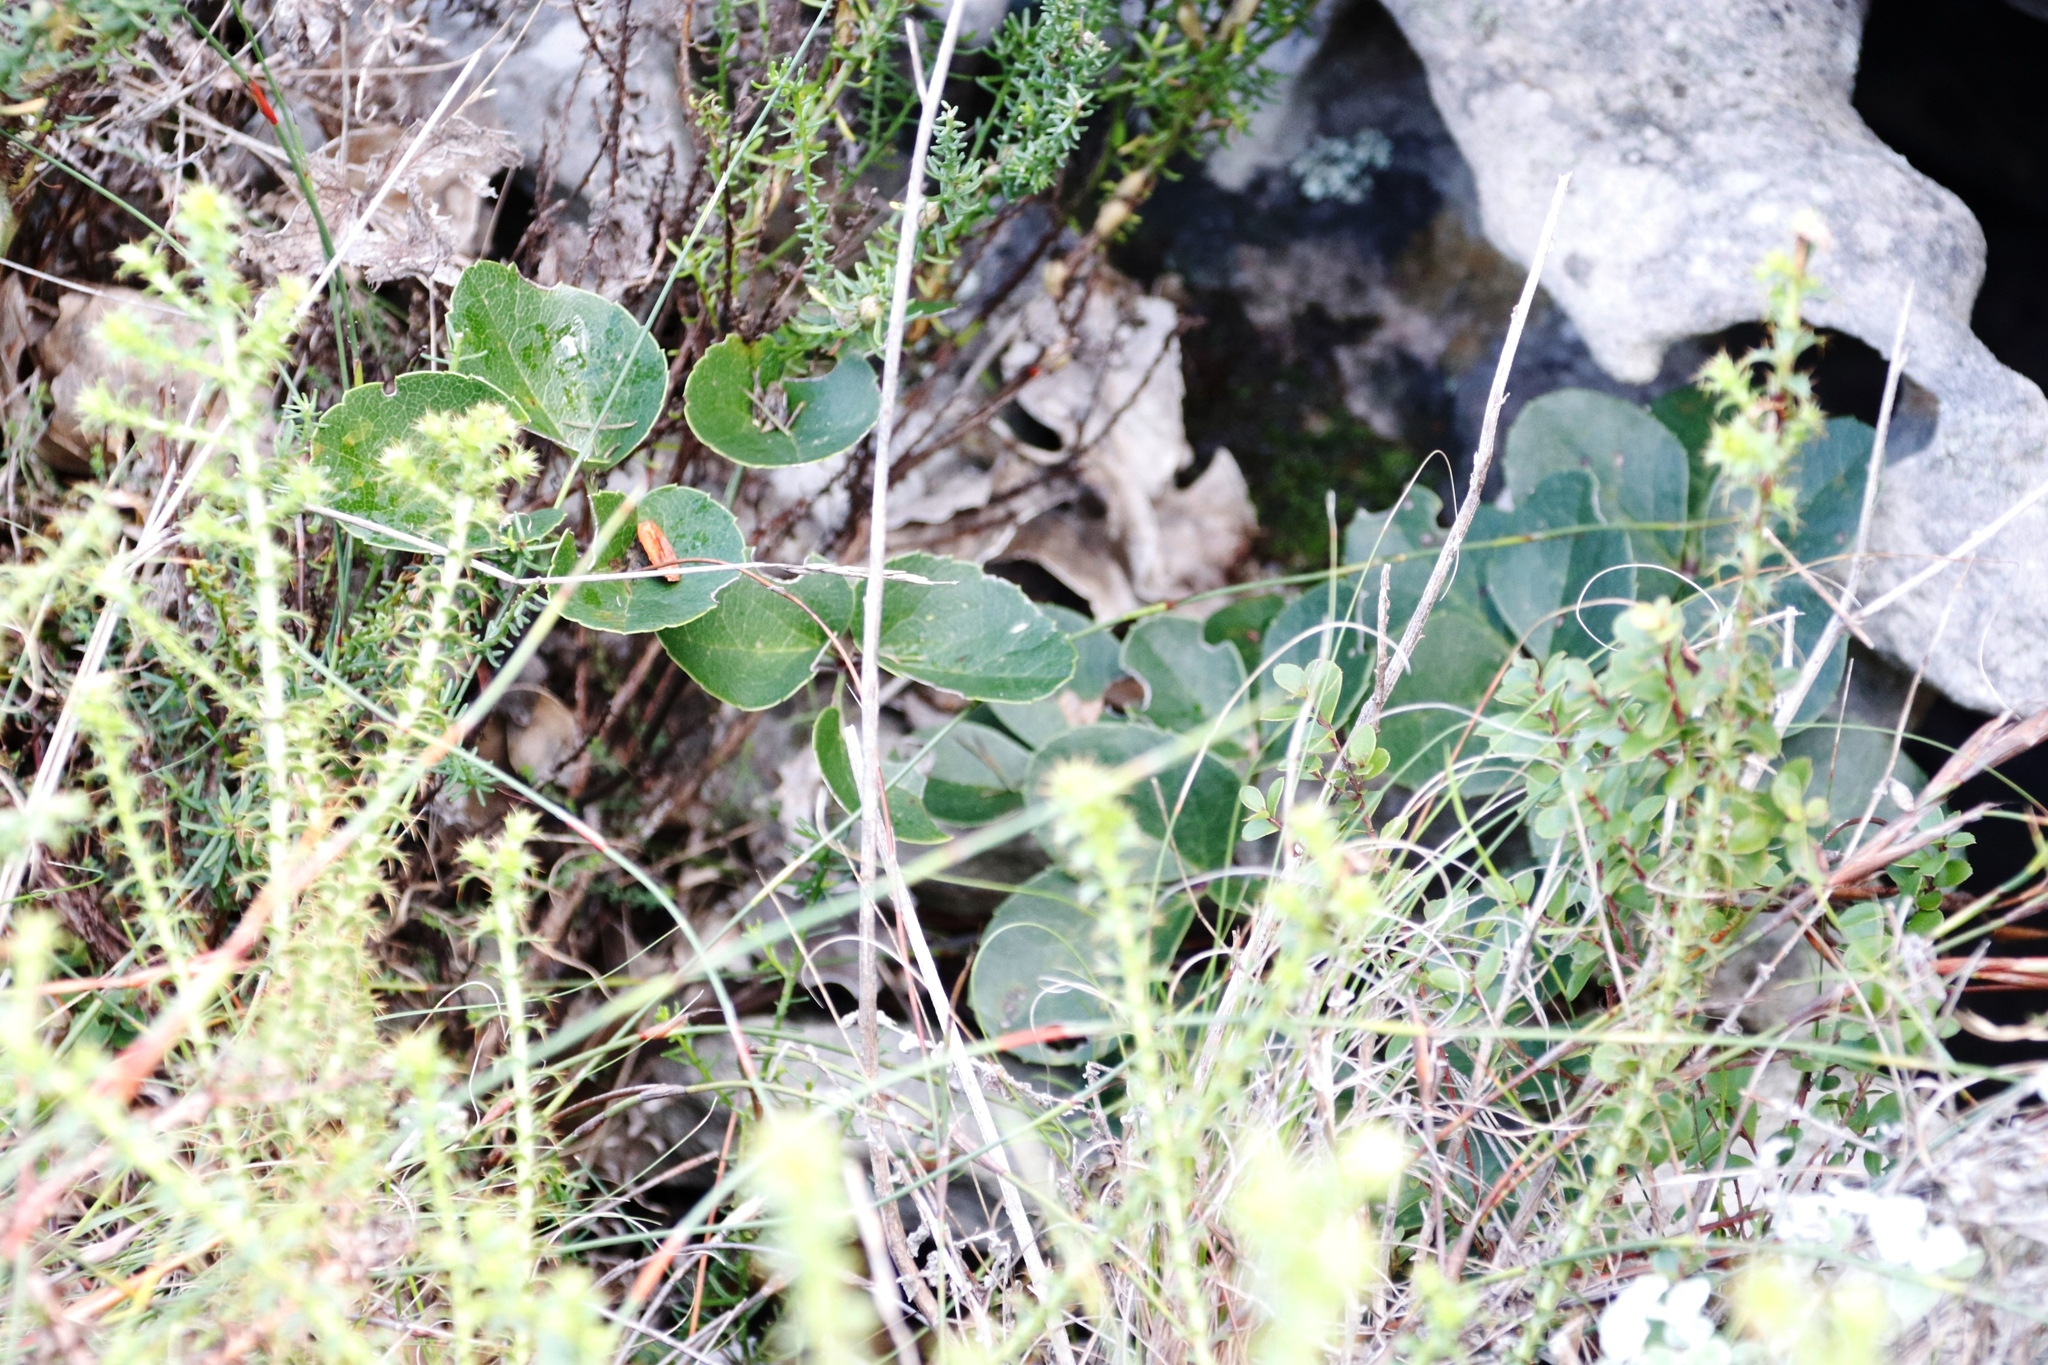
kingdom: Plantae
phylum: Tracheophyta
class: Magnoliopsida
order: Ranunculales
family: Ranunculaceae
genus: Knowltonia
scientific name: Knowltonia vesicatoria
